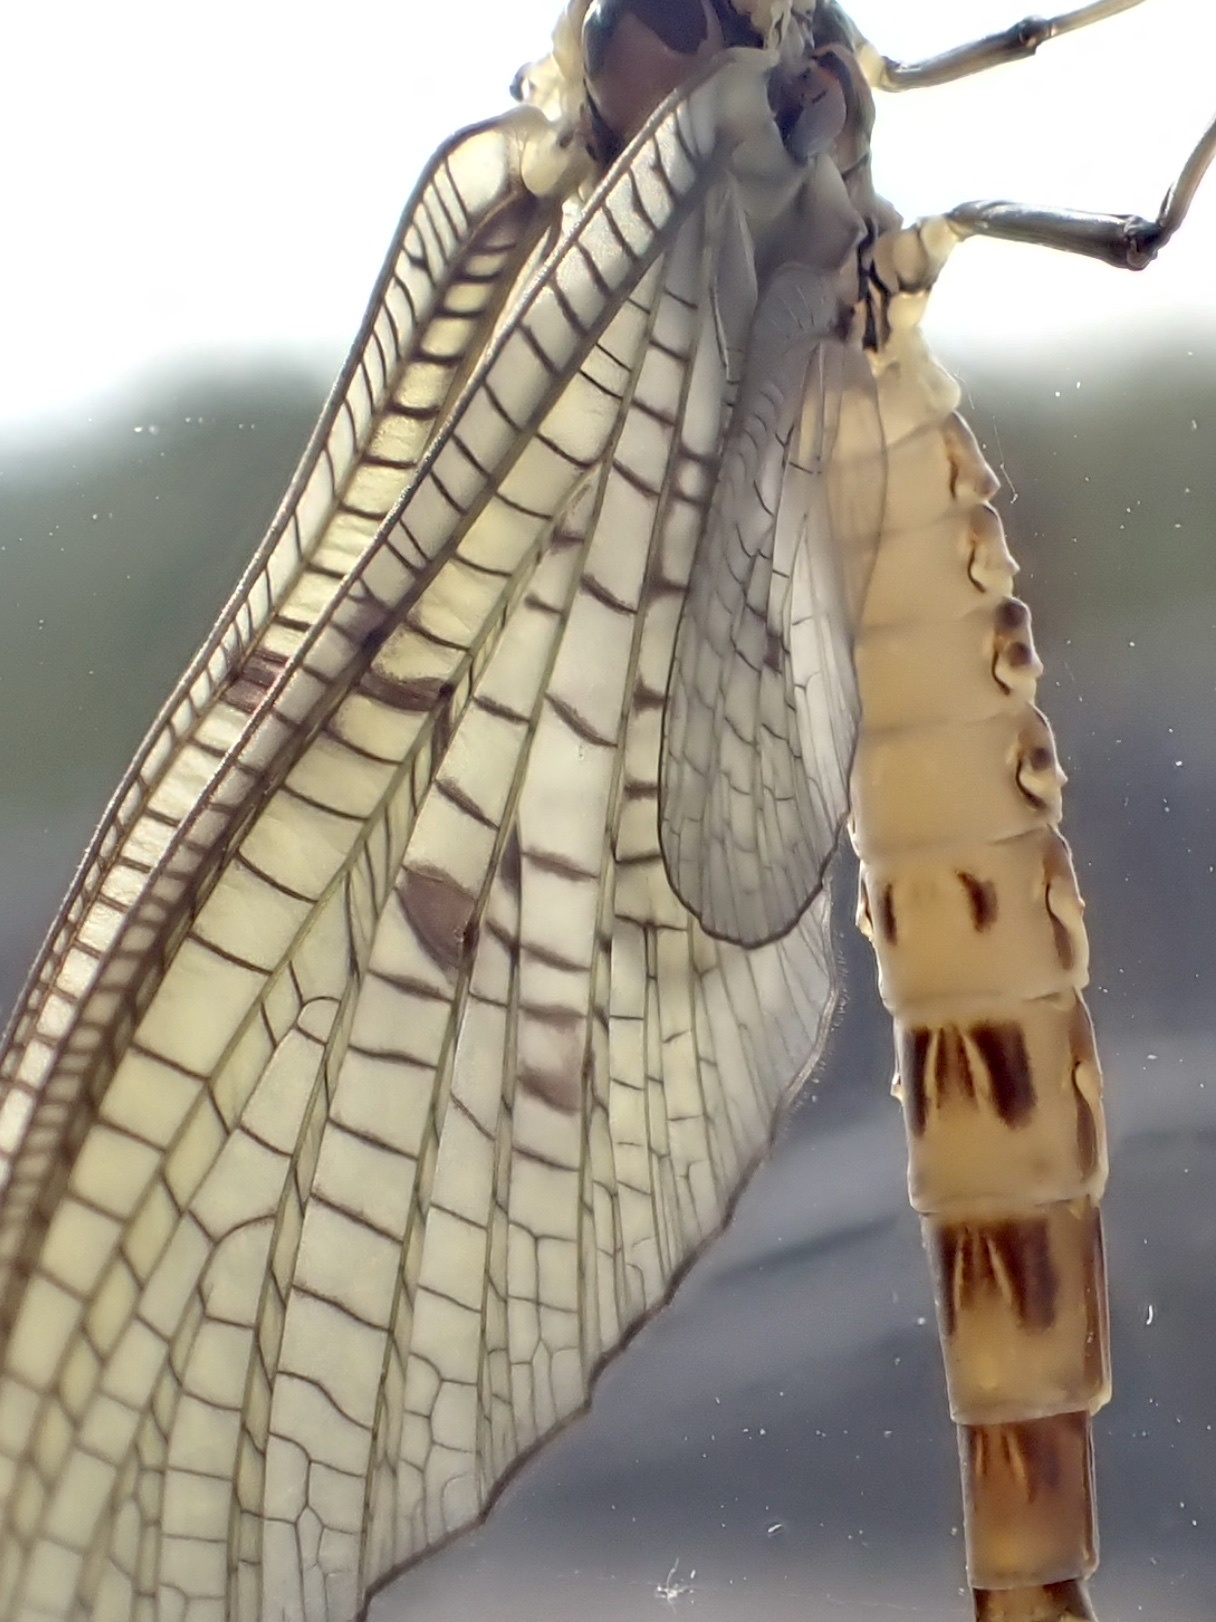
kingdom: Animalia
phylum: Arthropoda
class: Insecta
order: Ephemeroptera
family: Ephemeridae
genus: Ephemera
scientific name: Ephemera danica
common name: Green dun
